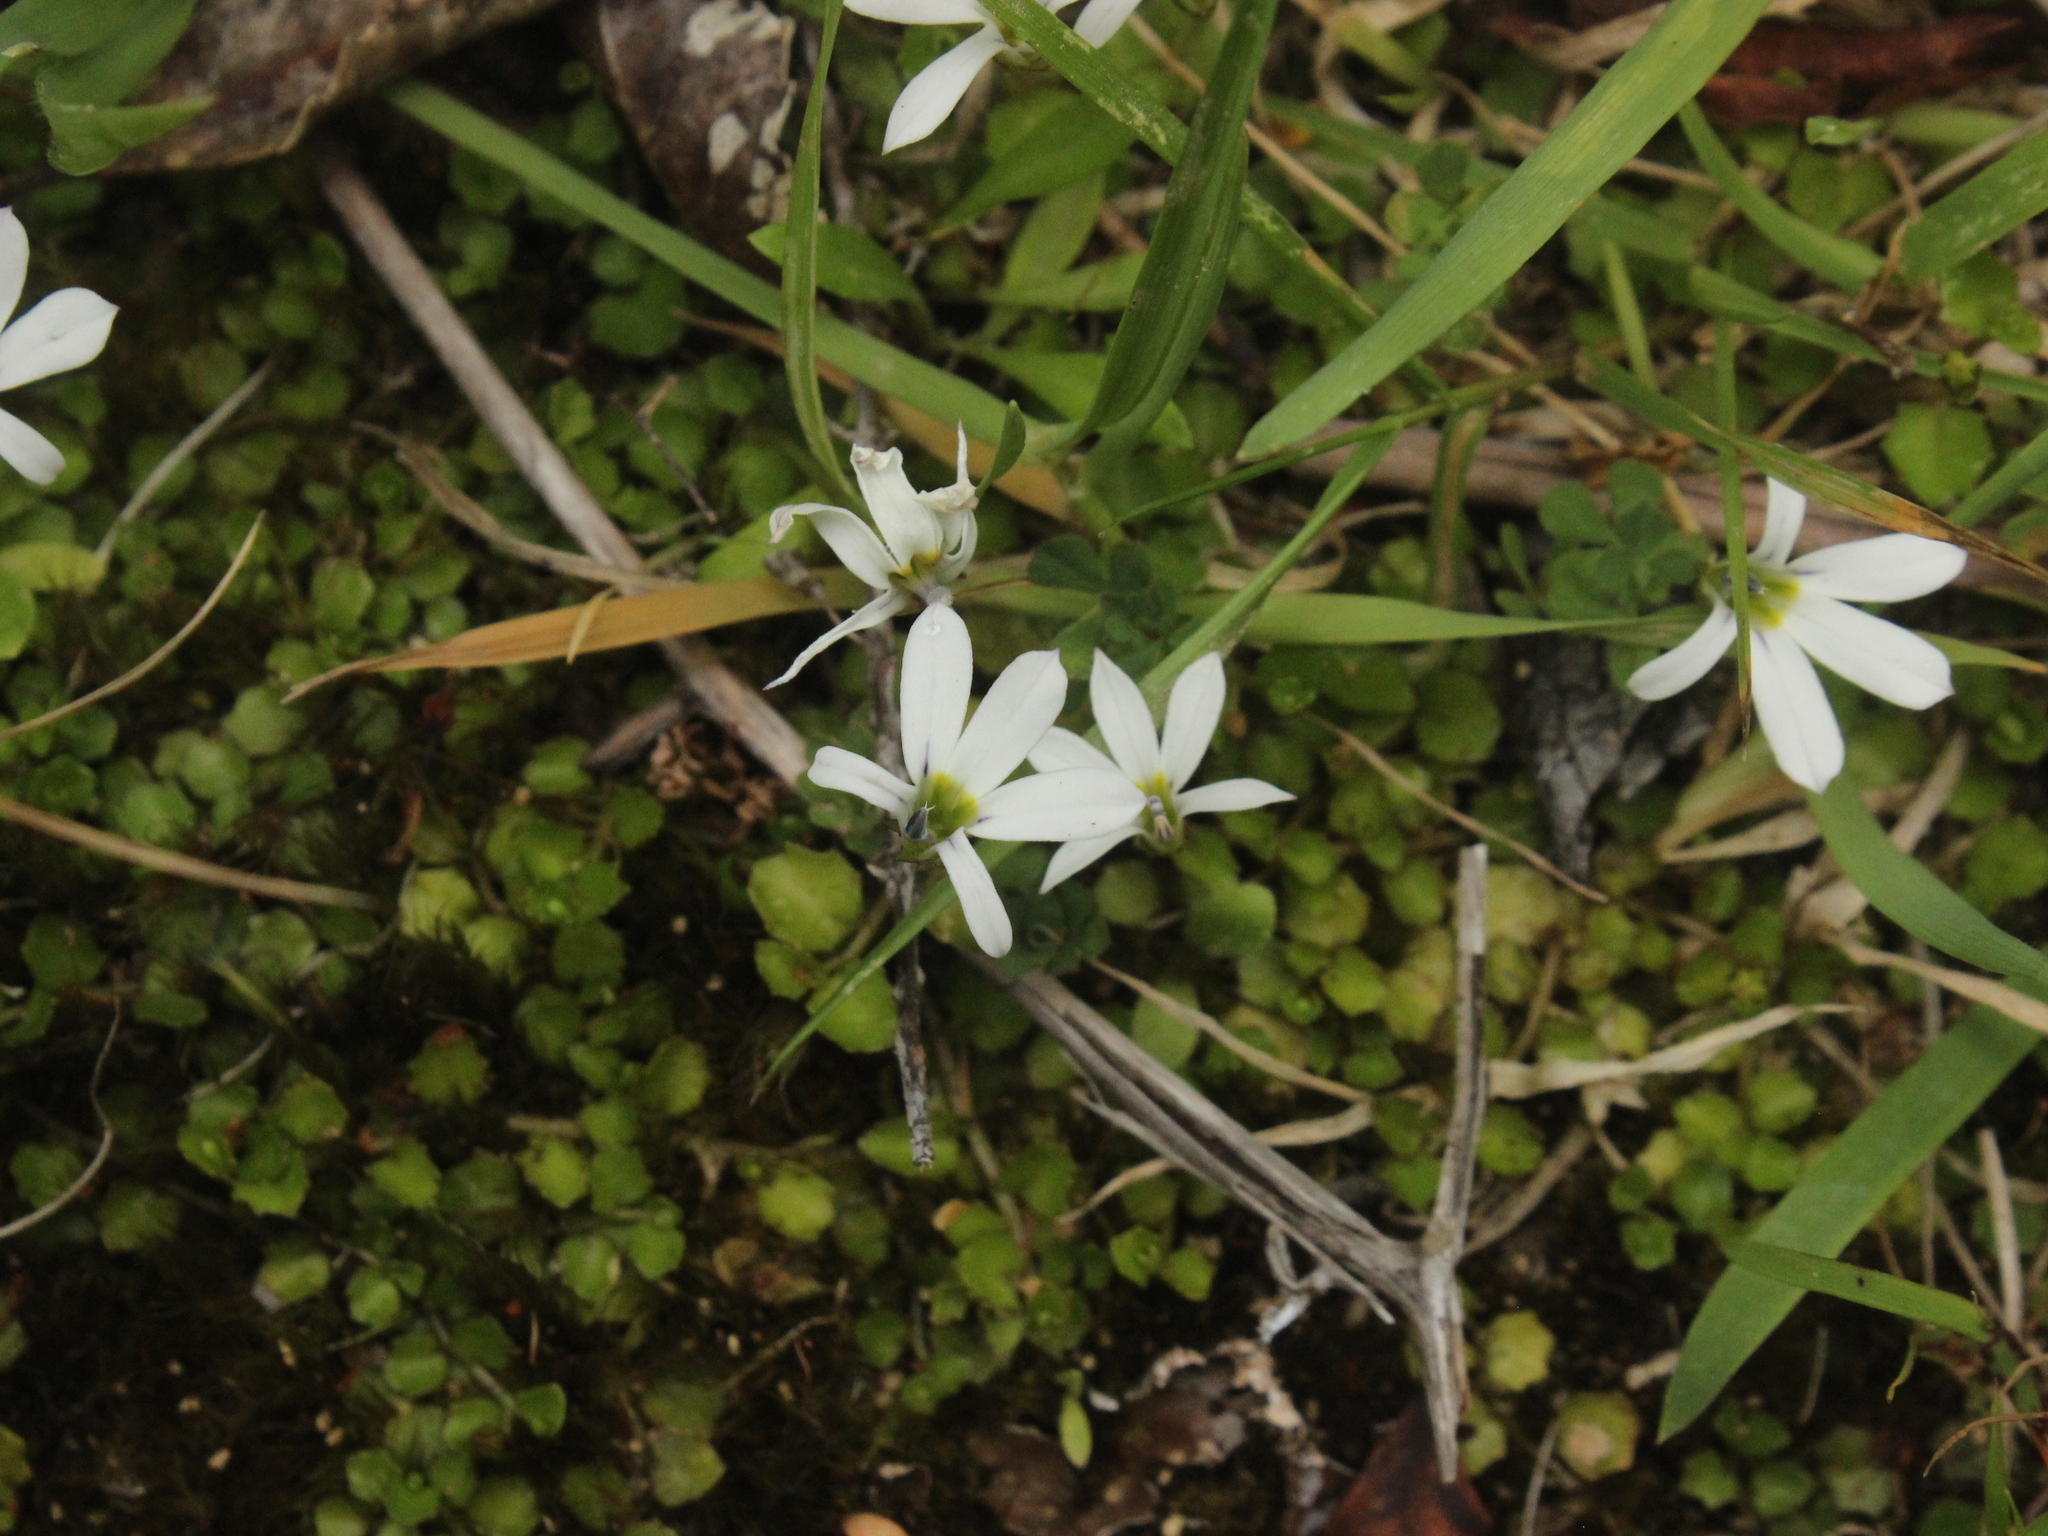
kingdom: Plantae
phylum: Tracheophyta
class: Magnoliopsida
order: Asterales
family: Campanulaceae
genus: Lobelia
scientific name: Lobelia angulata
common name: Lawn lobelia
